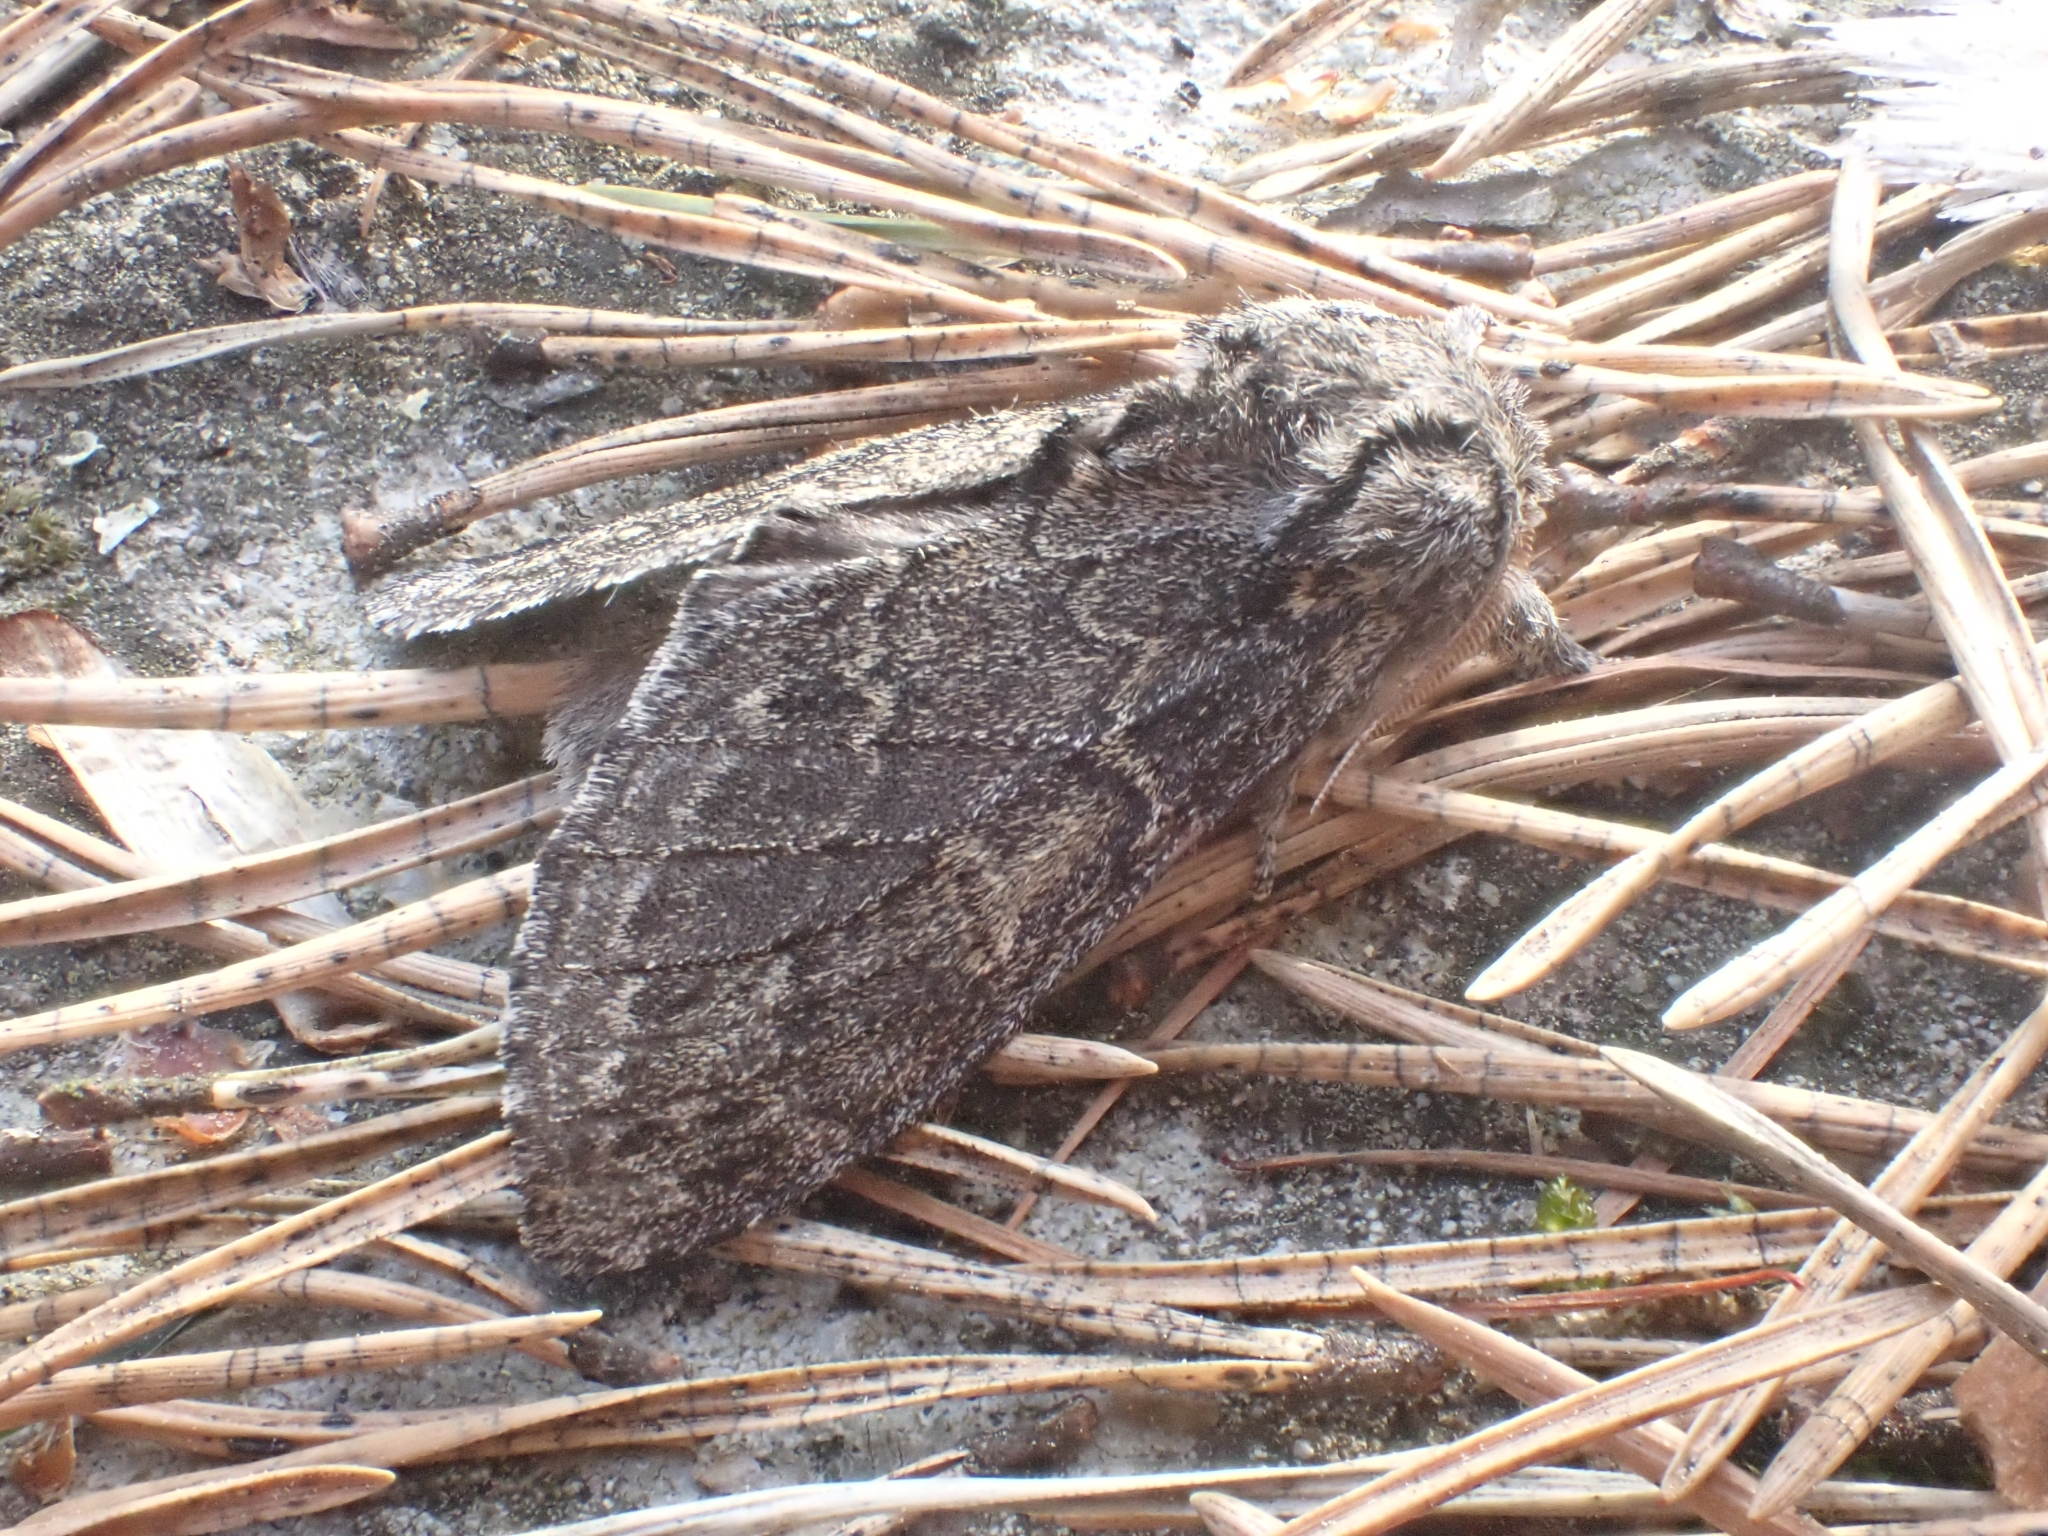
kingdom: Animalia
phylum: Arthropoda
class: Insecta
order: Lepidoptera
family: Notodontidae
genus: Notodonta
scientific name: Notodonta torva
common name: Large dark prominent
